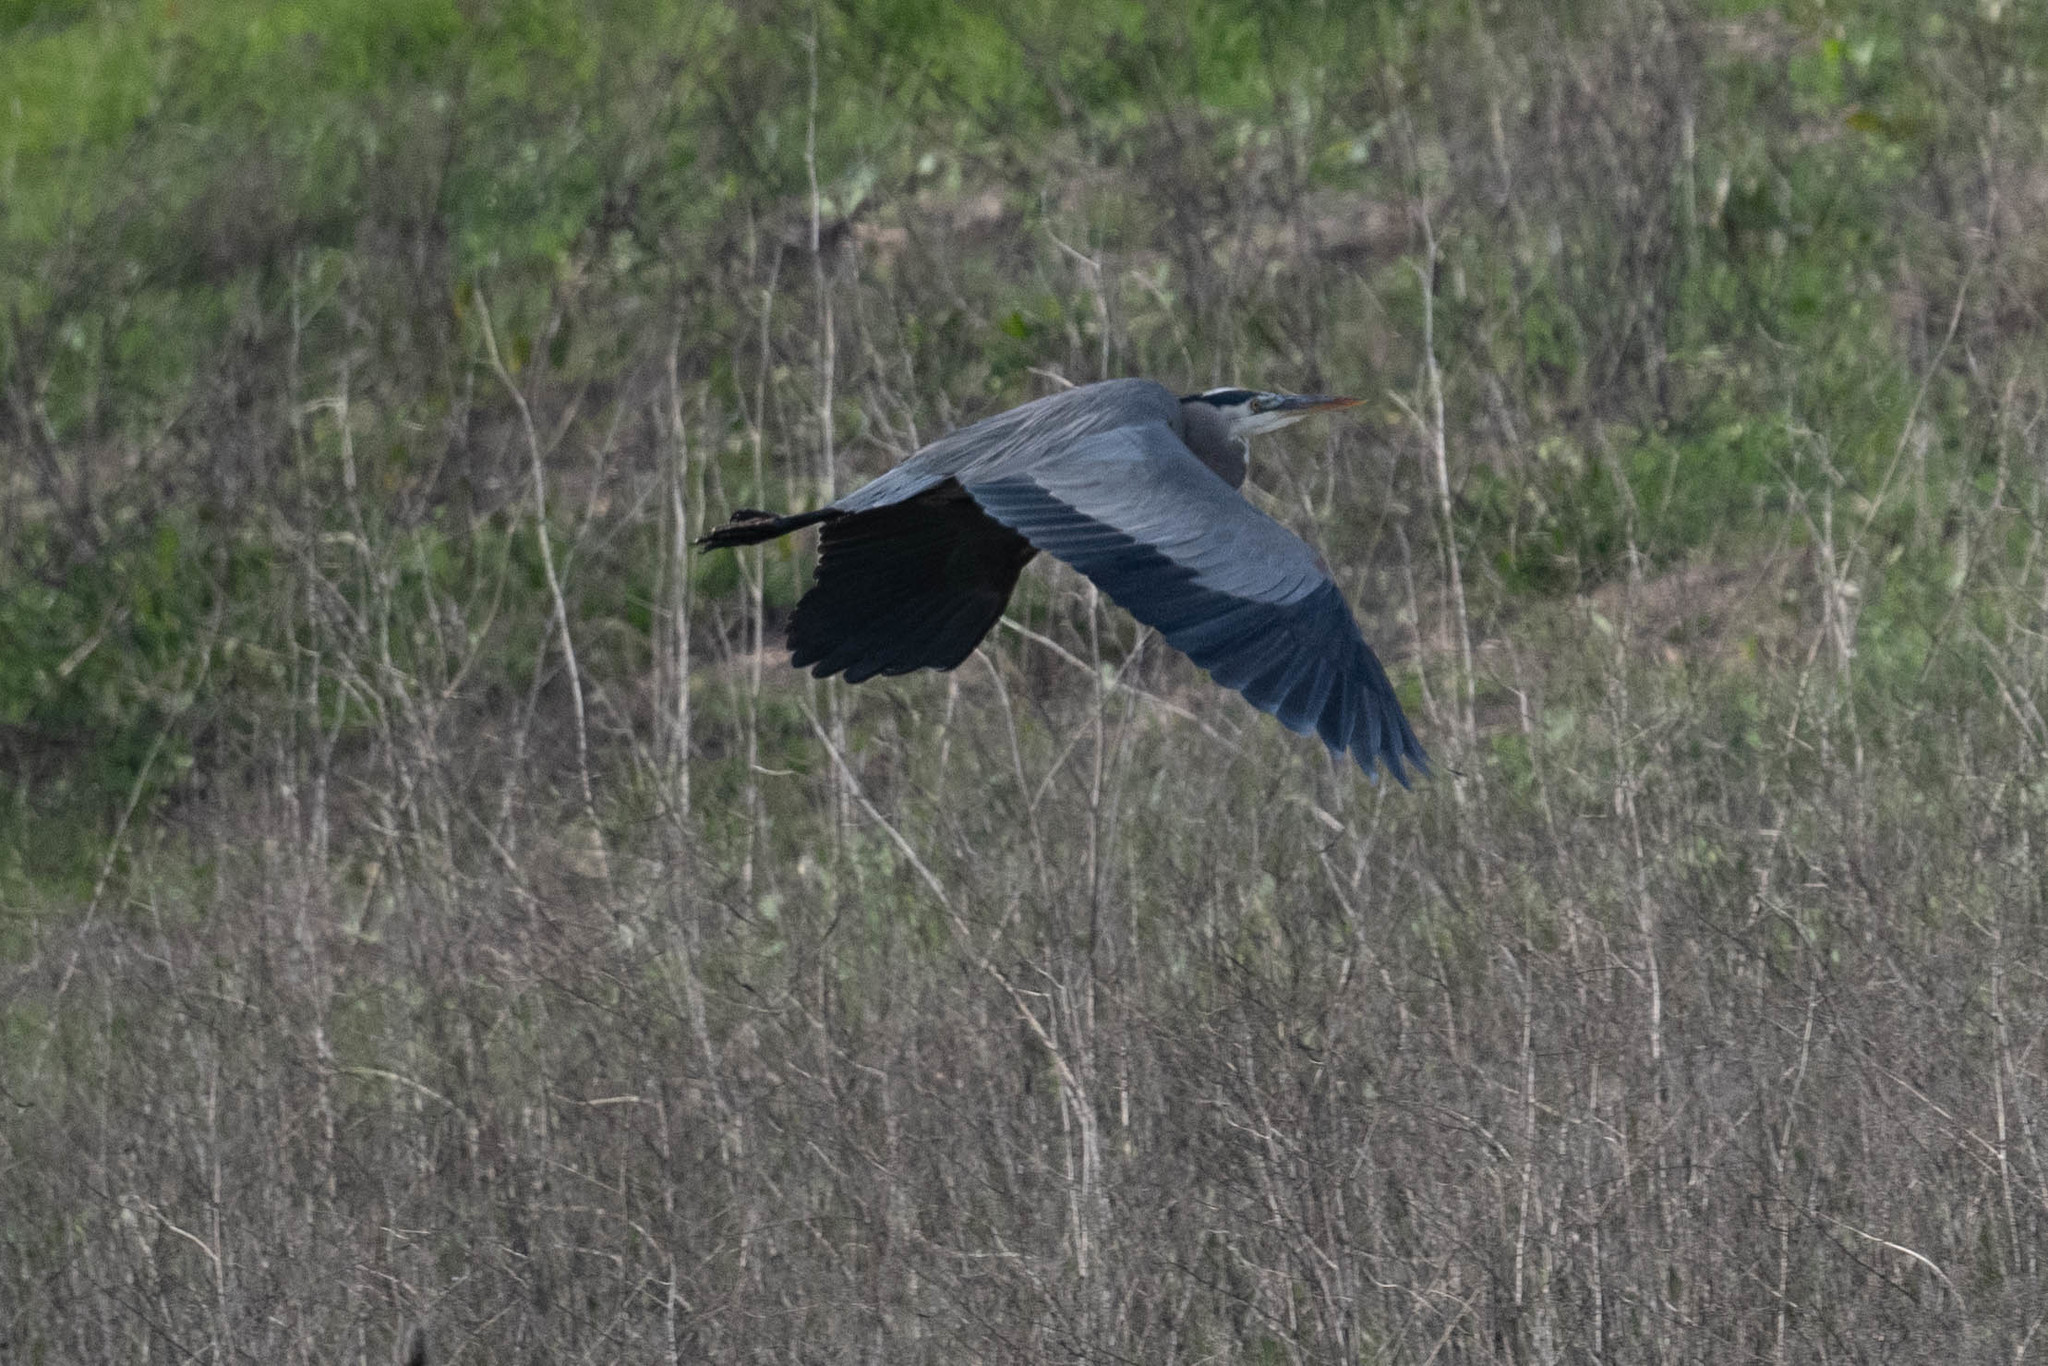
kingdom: Animalia
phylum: Chordata
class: Aves
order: Pelecaniformes
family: Ardeidae
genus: Ardea
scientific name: Ardea herodias
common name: Great blue heron
